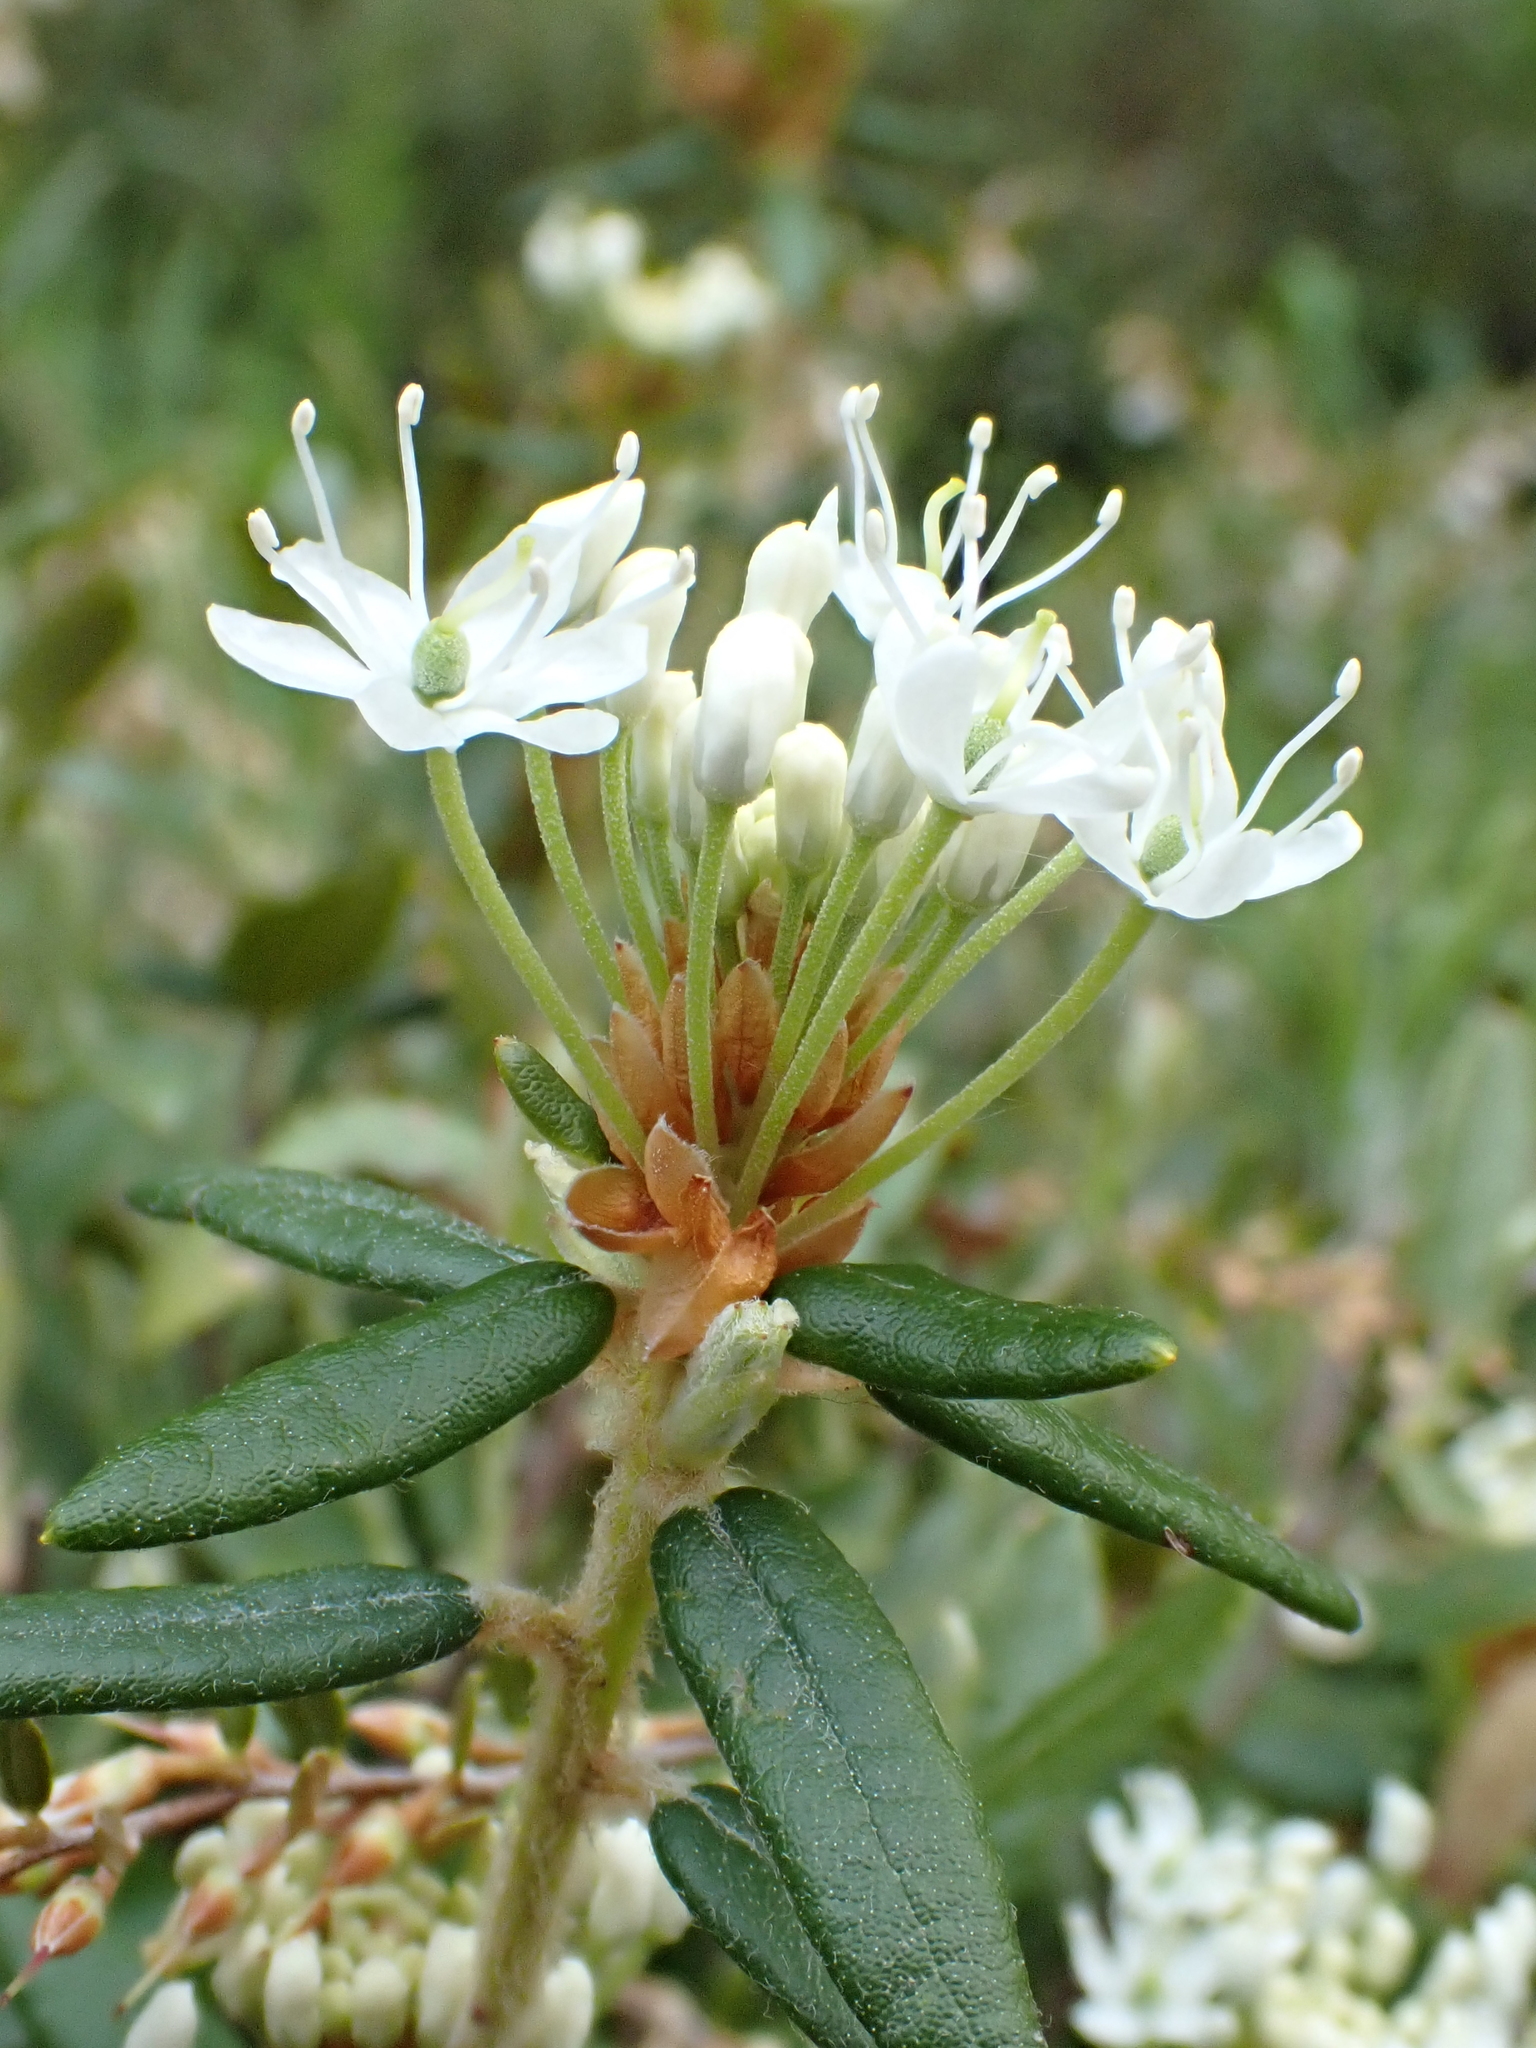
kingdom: Plantae
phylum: Tracheophyta
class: Magnoliopsida
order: Ericales
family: Ericaceae
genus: Rhododendron
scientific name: Rhododendron groenlandicum
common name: Bog labrador tea
